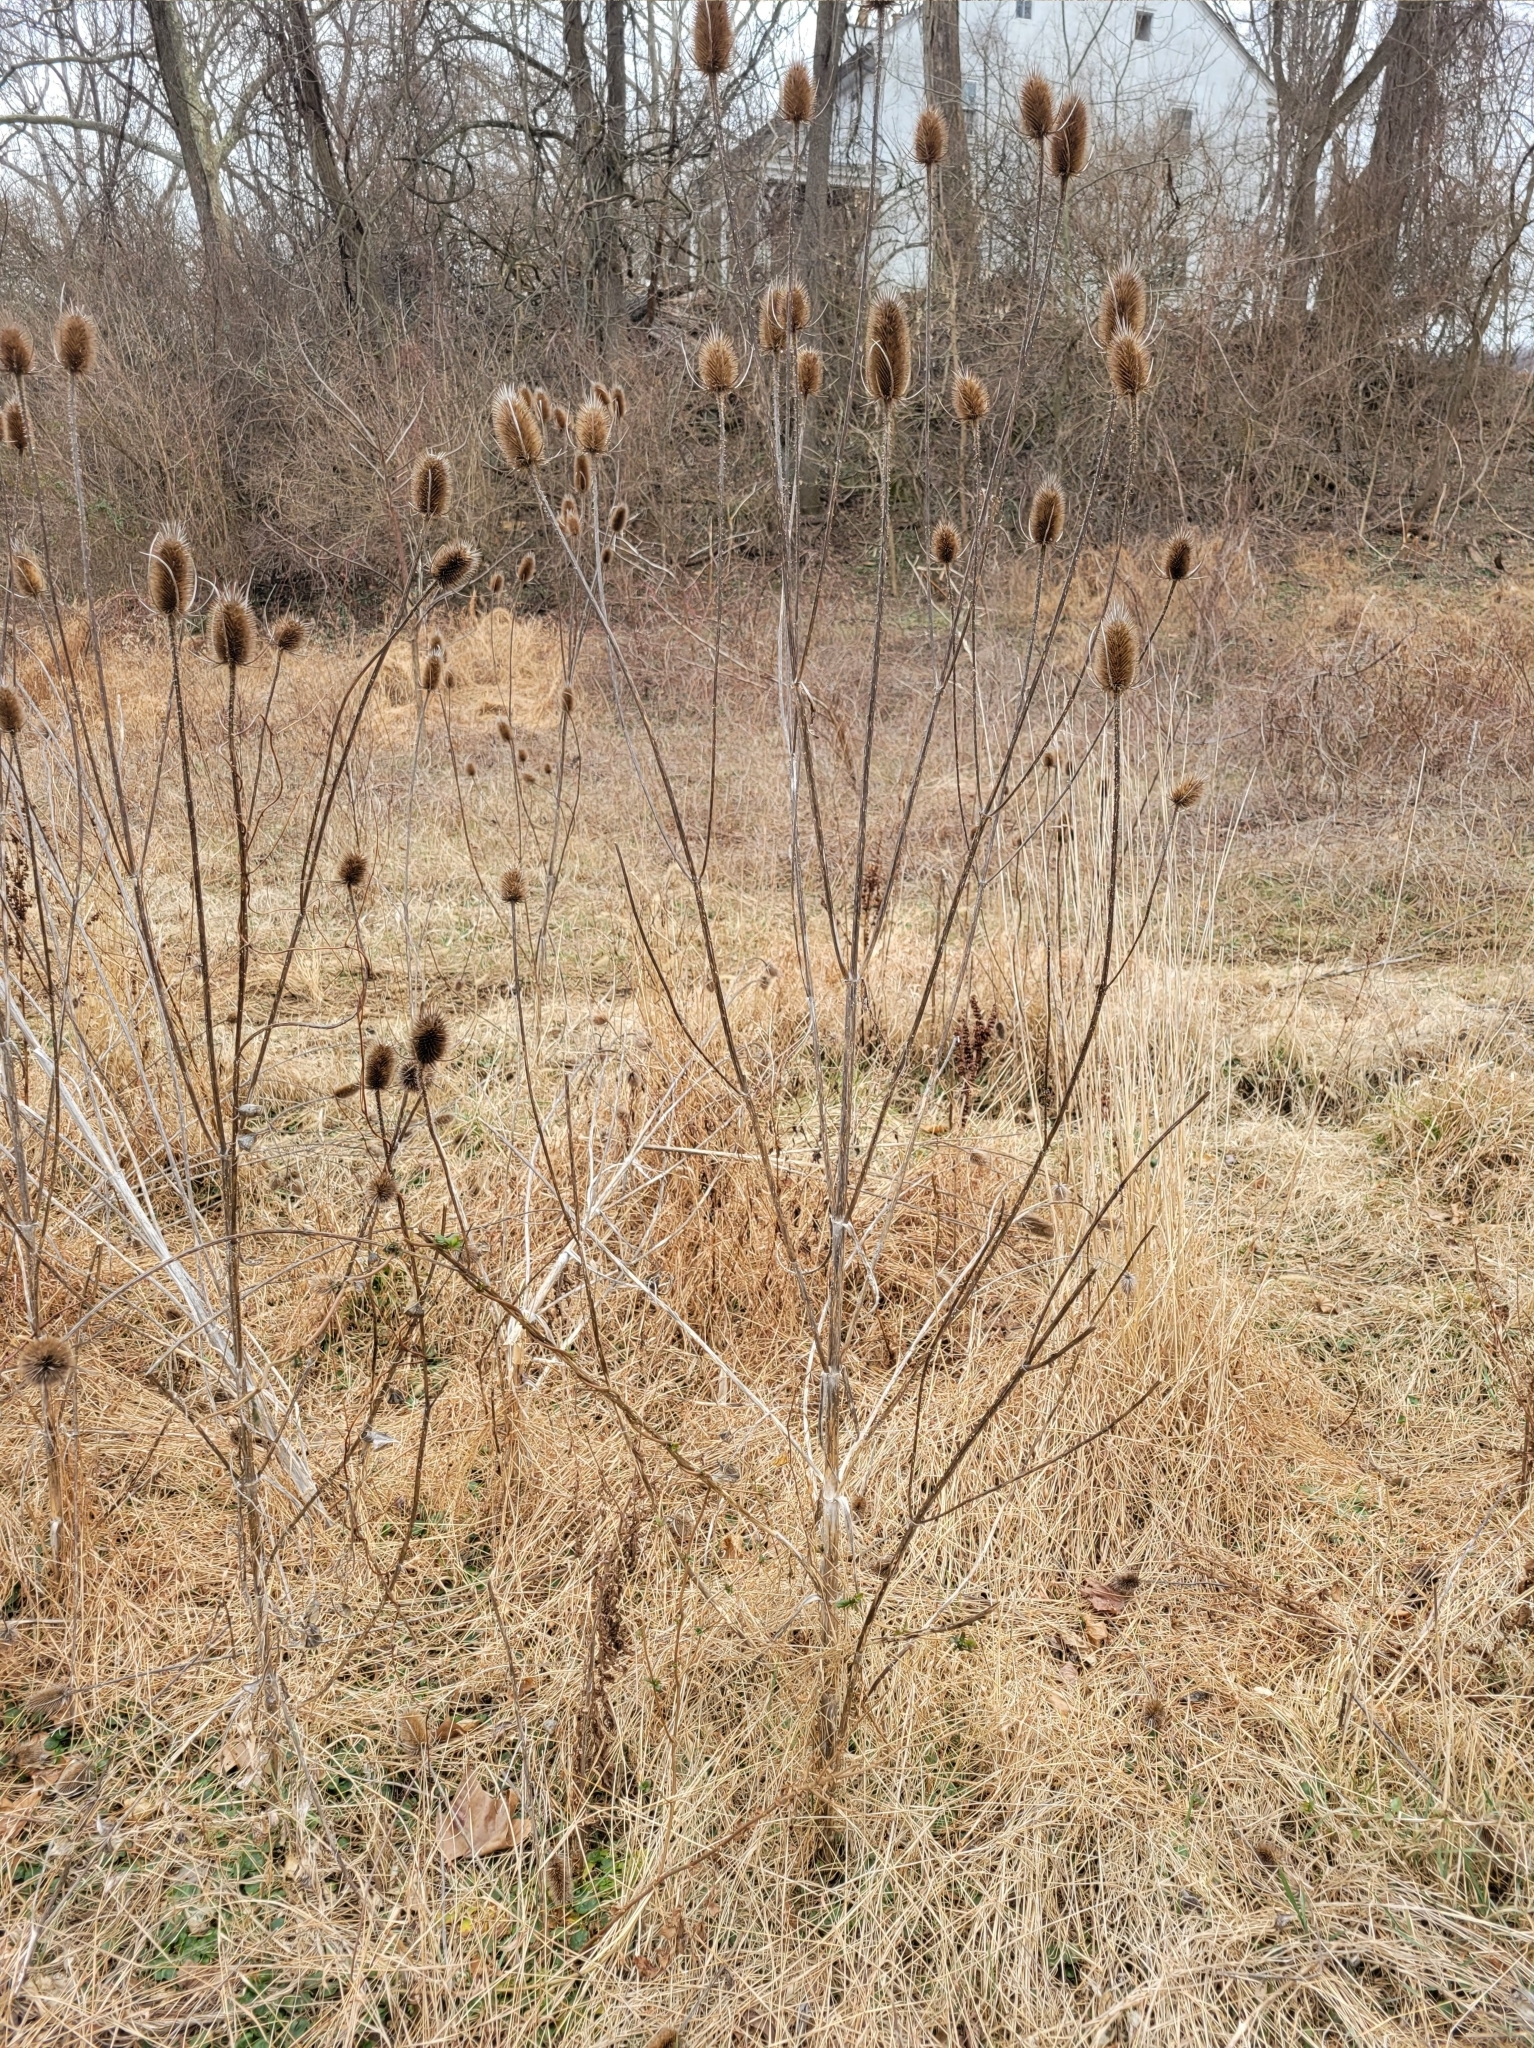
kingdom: Plantae
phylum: Tracheophyta
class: Magnoliopsida
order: Dipsacales
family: Caprifoliaceae
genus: Dipsacus
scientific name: Dipsacus fullonum
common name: Teasel
